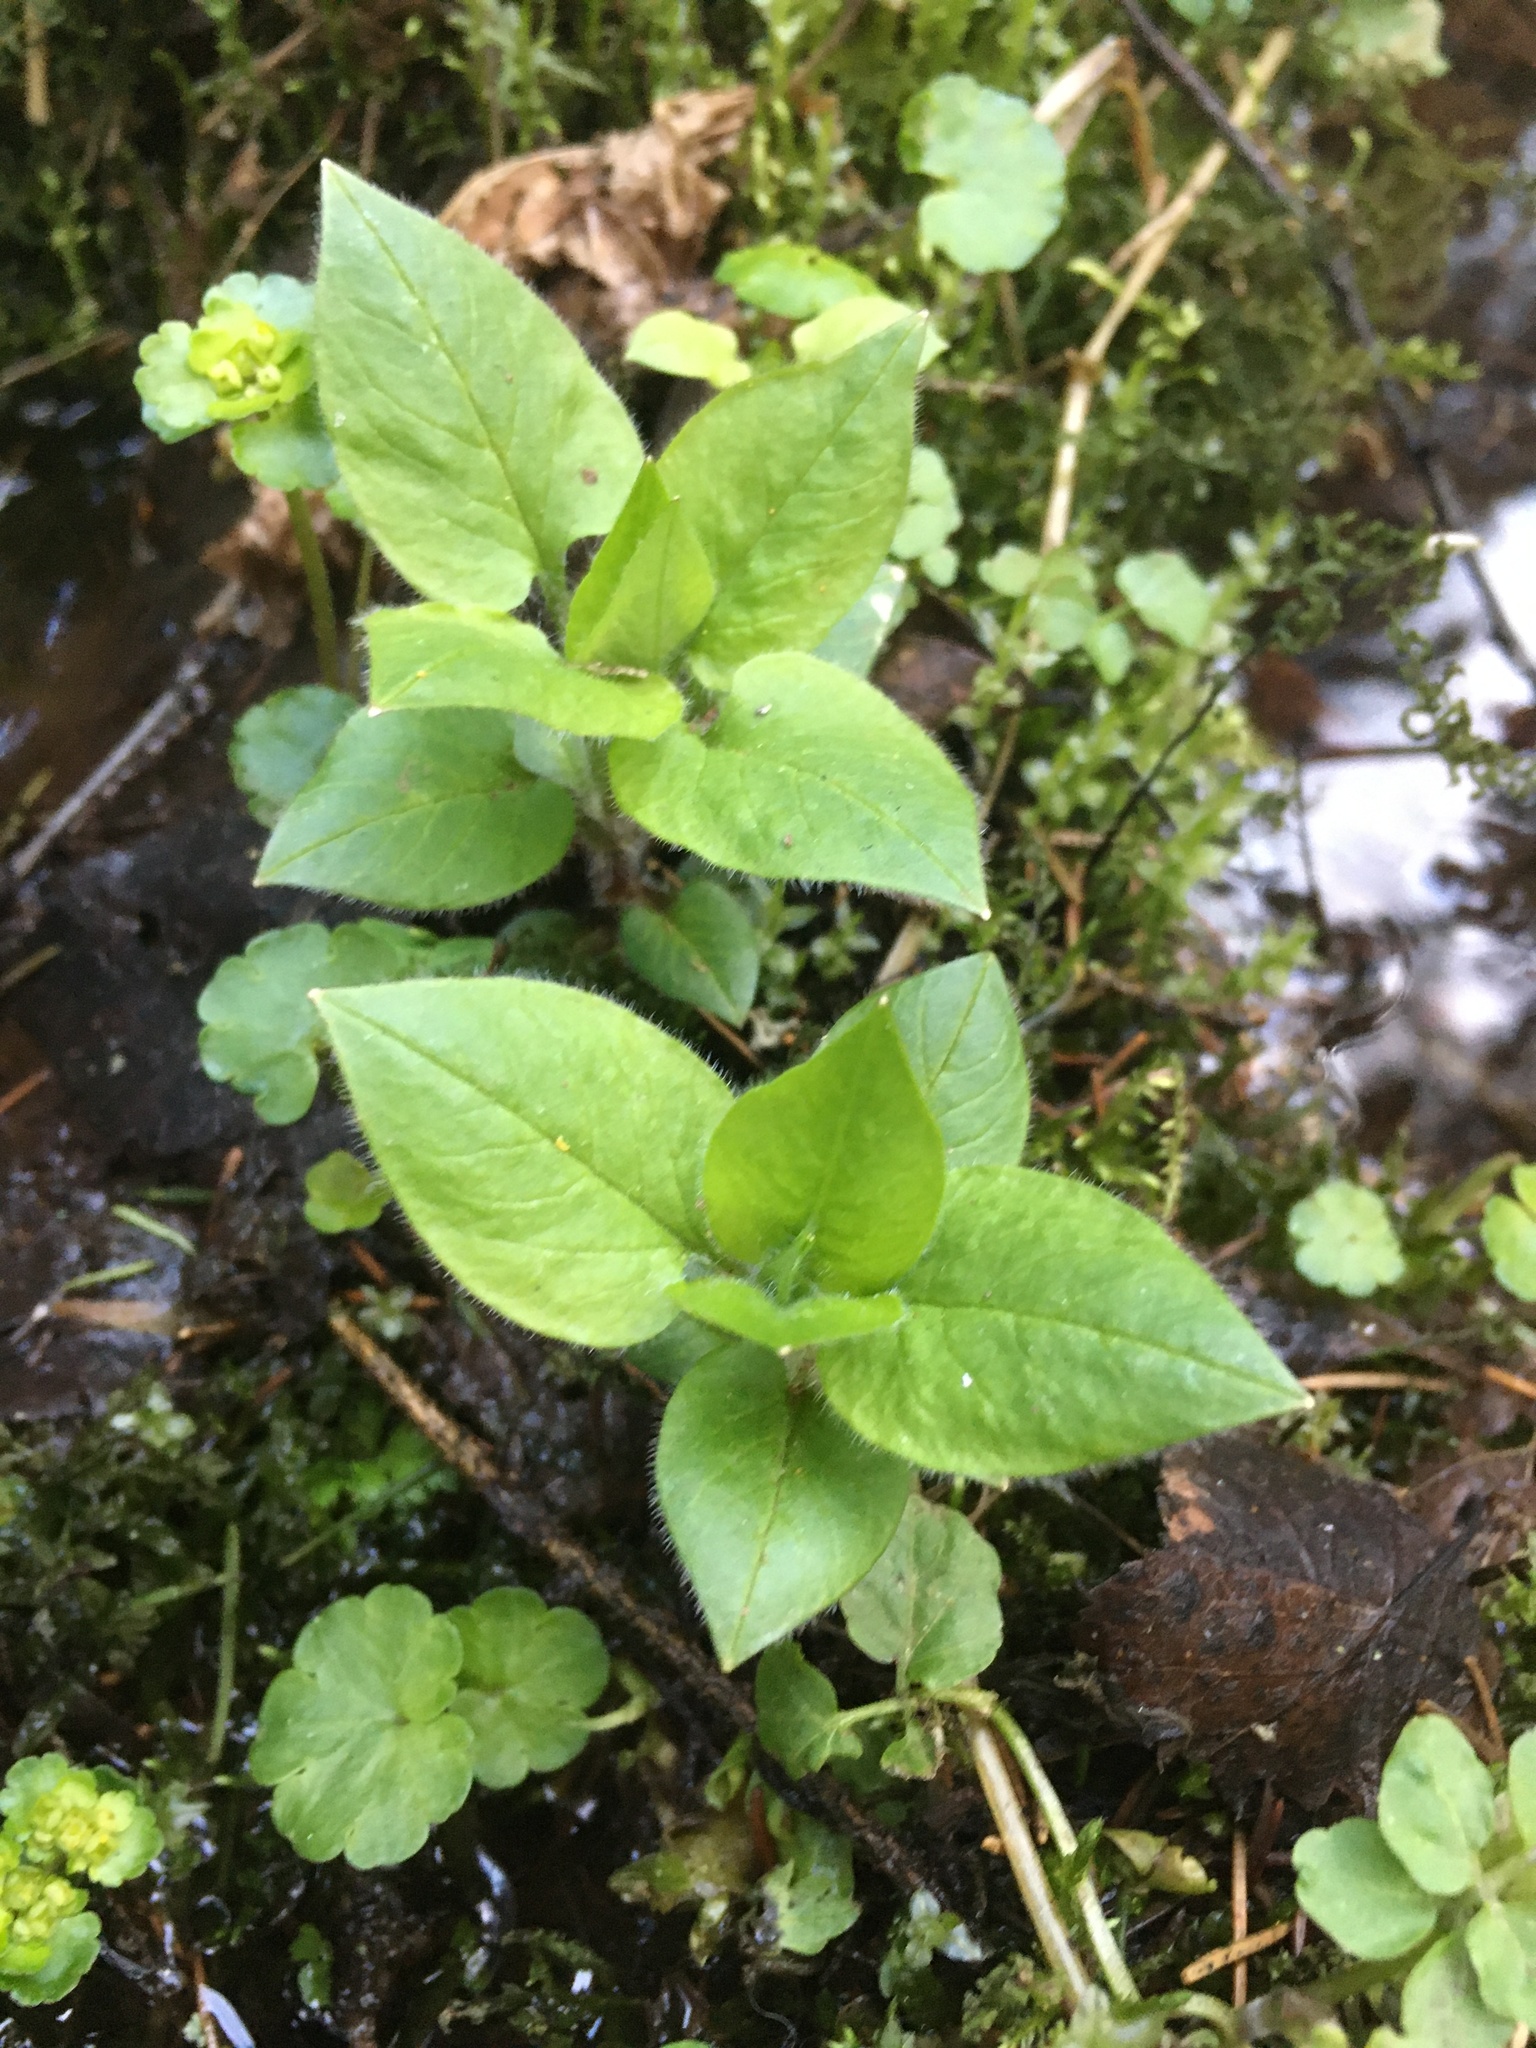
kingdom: Plantae
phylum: Tracheophyta
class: Magnoliopsida
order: Caryophyllales
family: Caryophyllaceae
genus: Stellaria
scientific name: Stellaria nemorum
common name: Wood stitchwort
